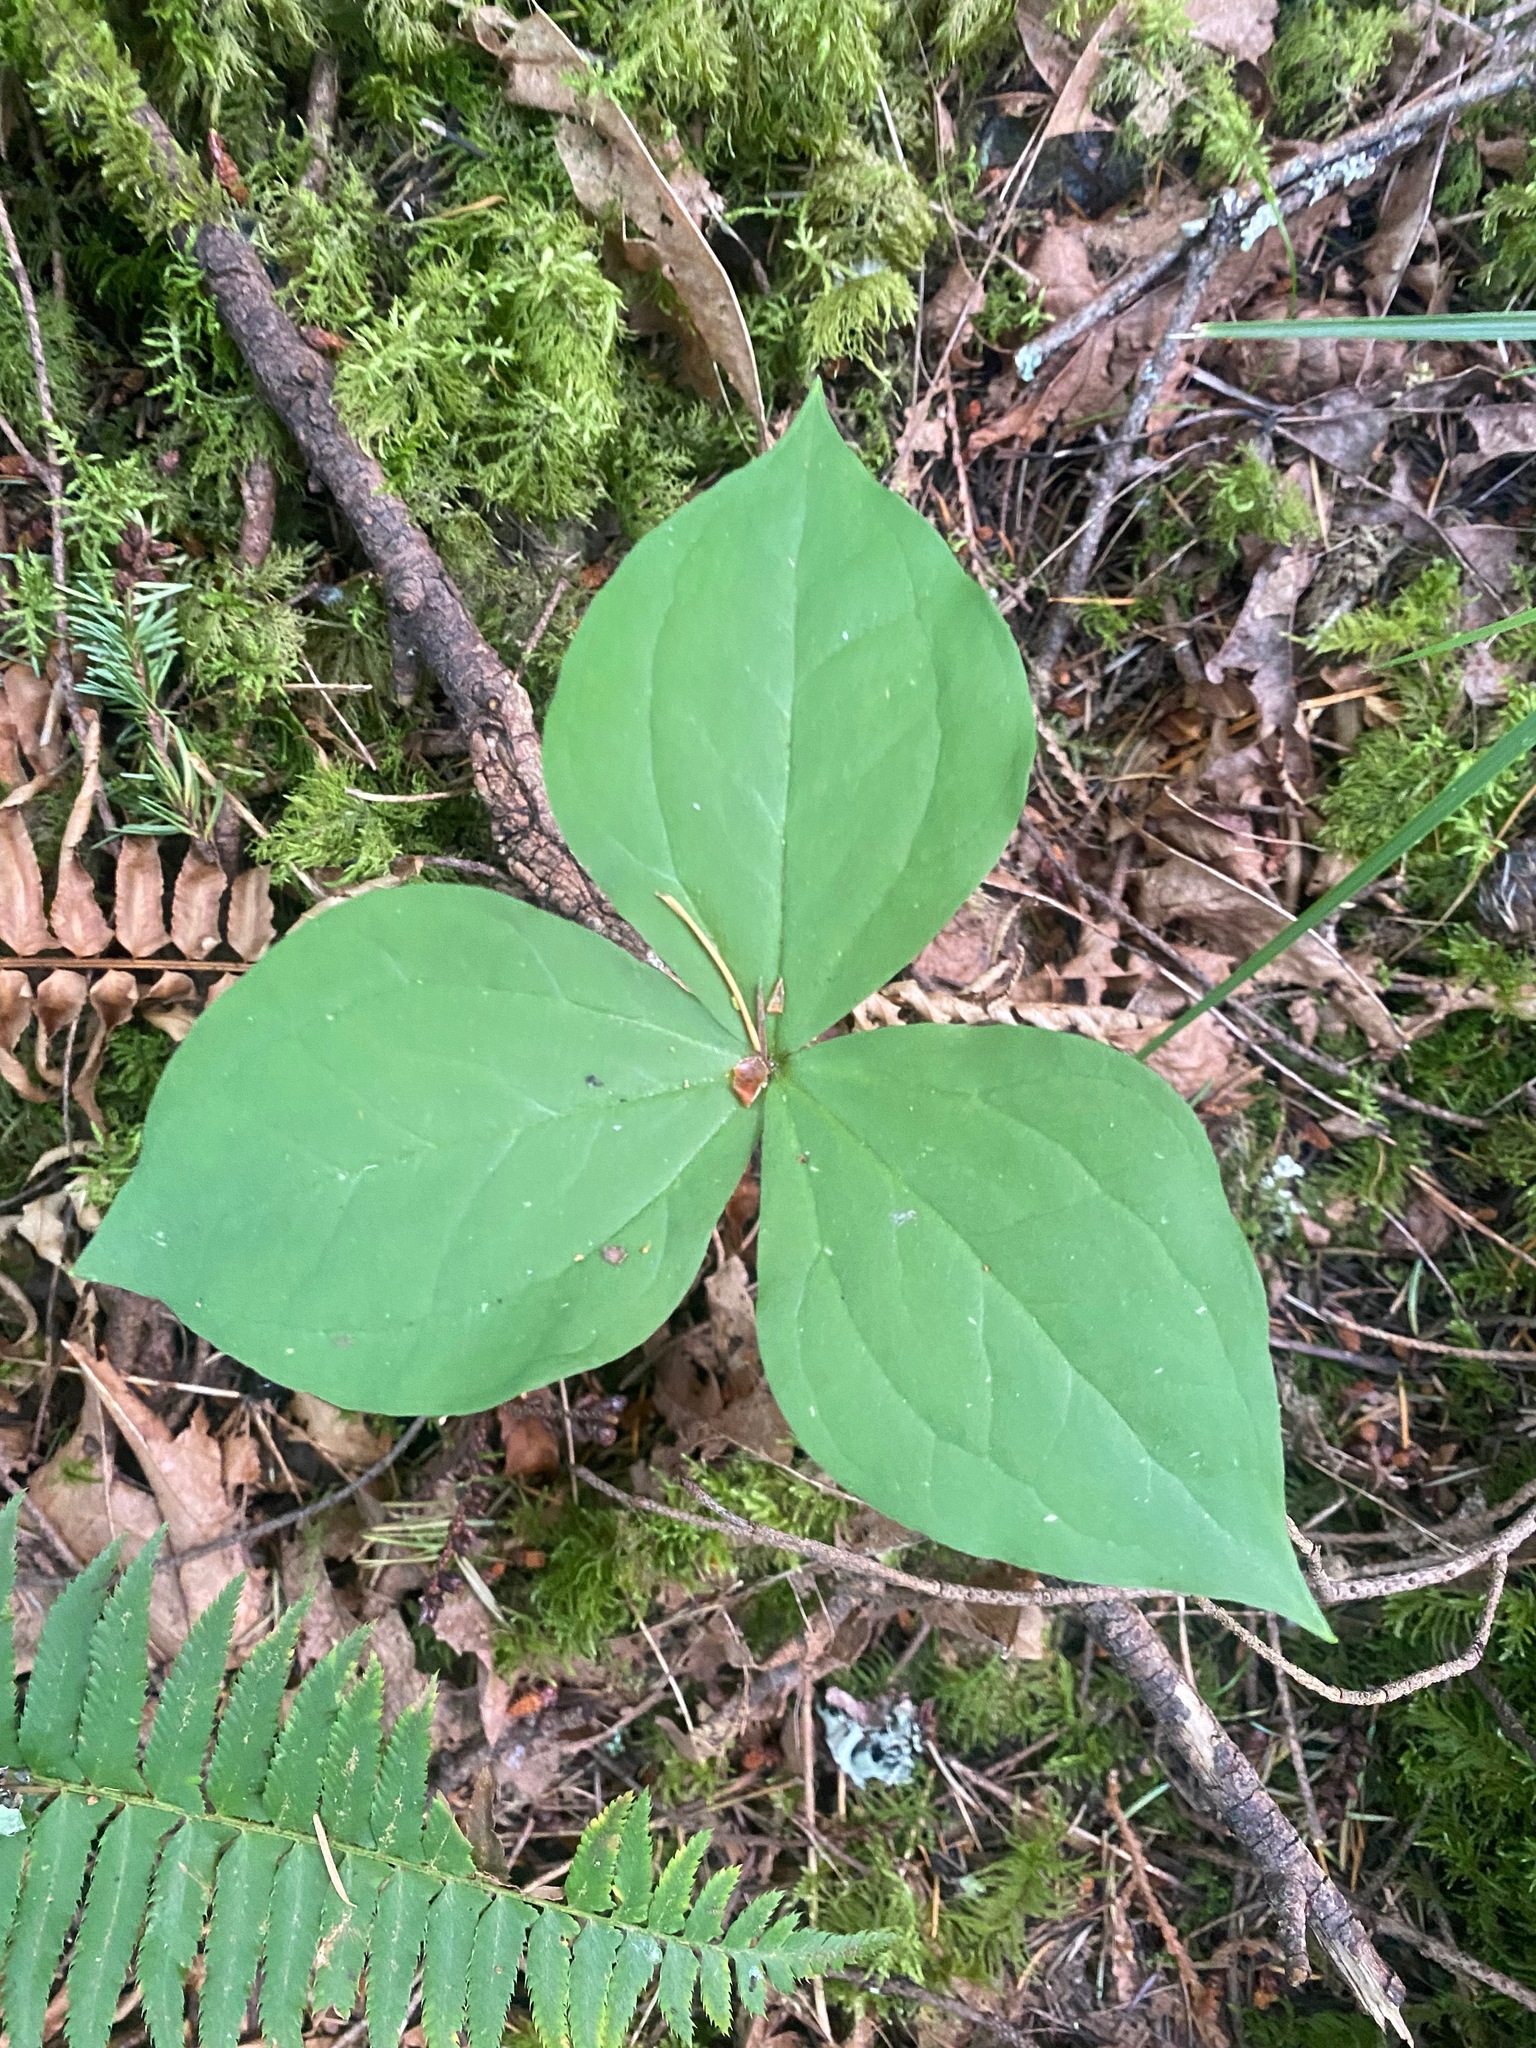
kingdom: Plantae
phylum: Tracheophyta
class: Liliopsida
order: Liliales
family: Melanthiaceae
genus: Trillium
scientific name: Trillium ovatum
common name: Pacific trillium
